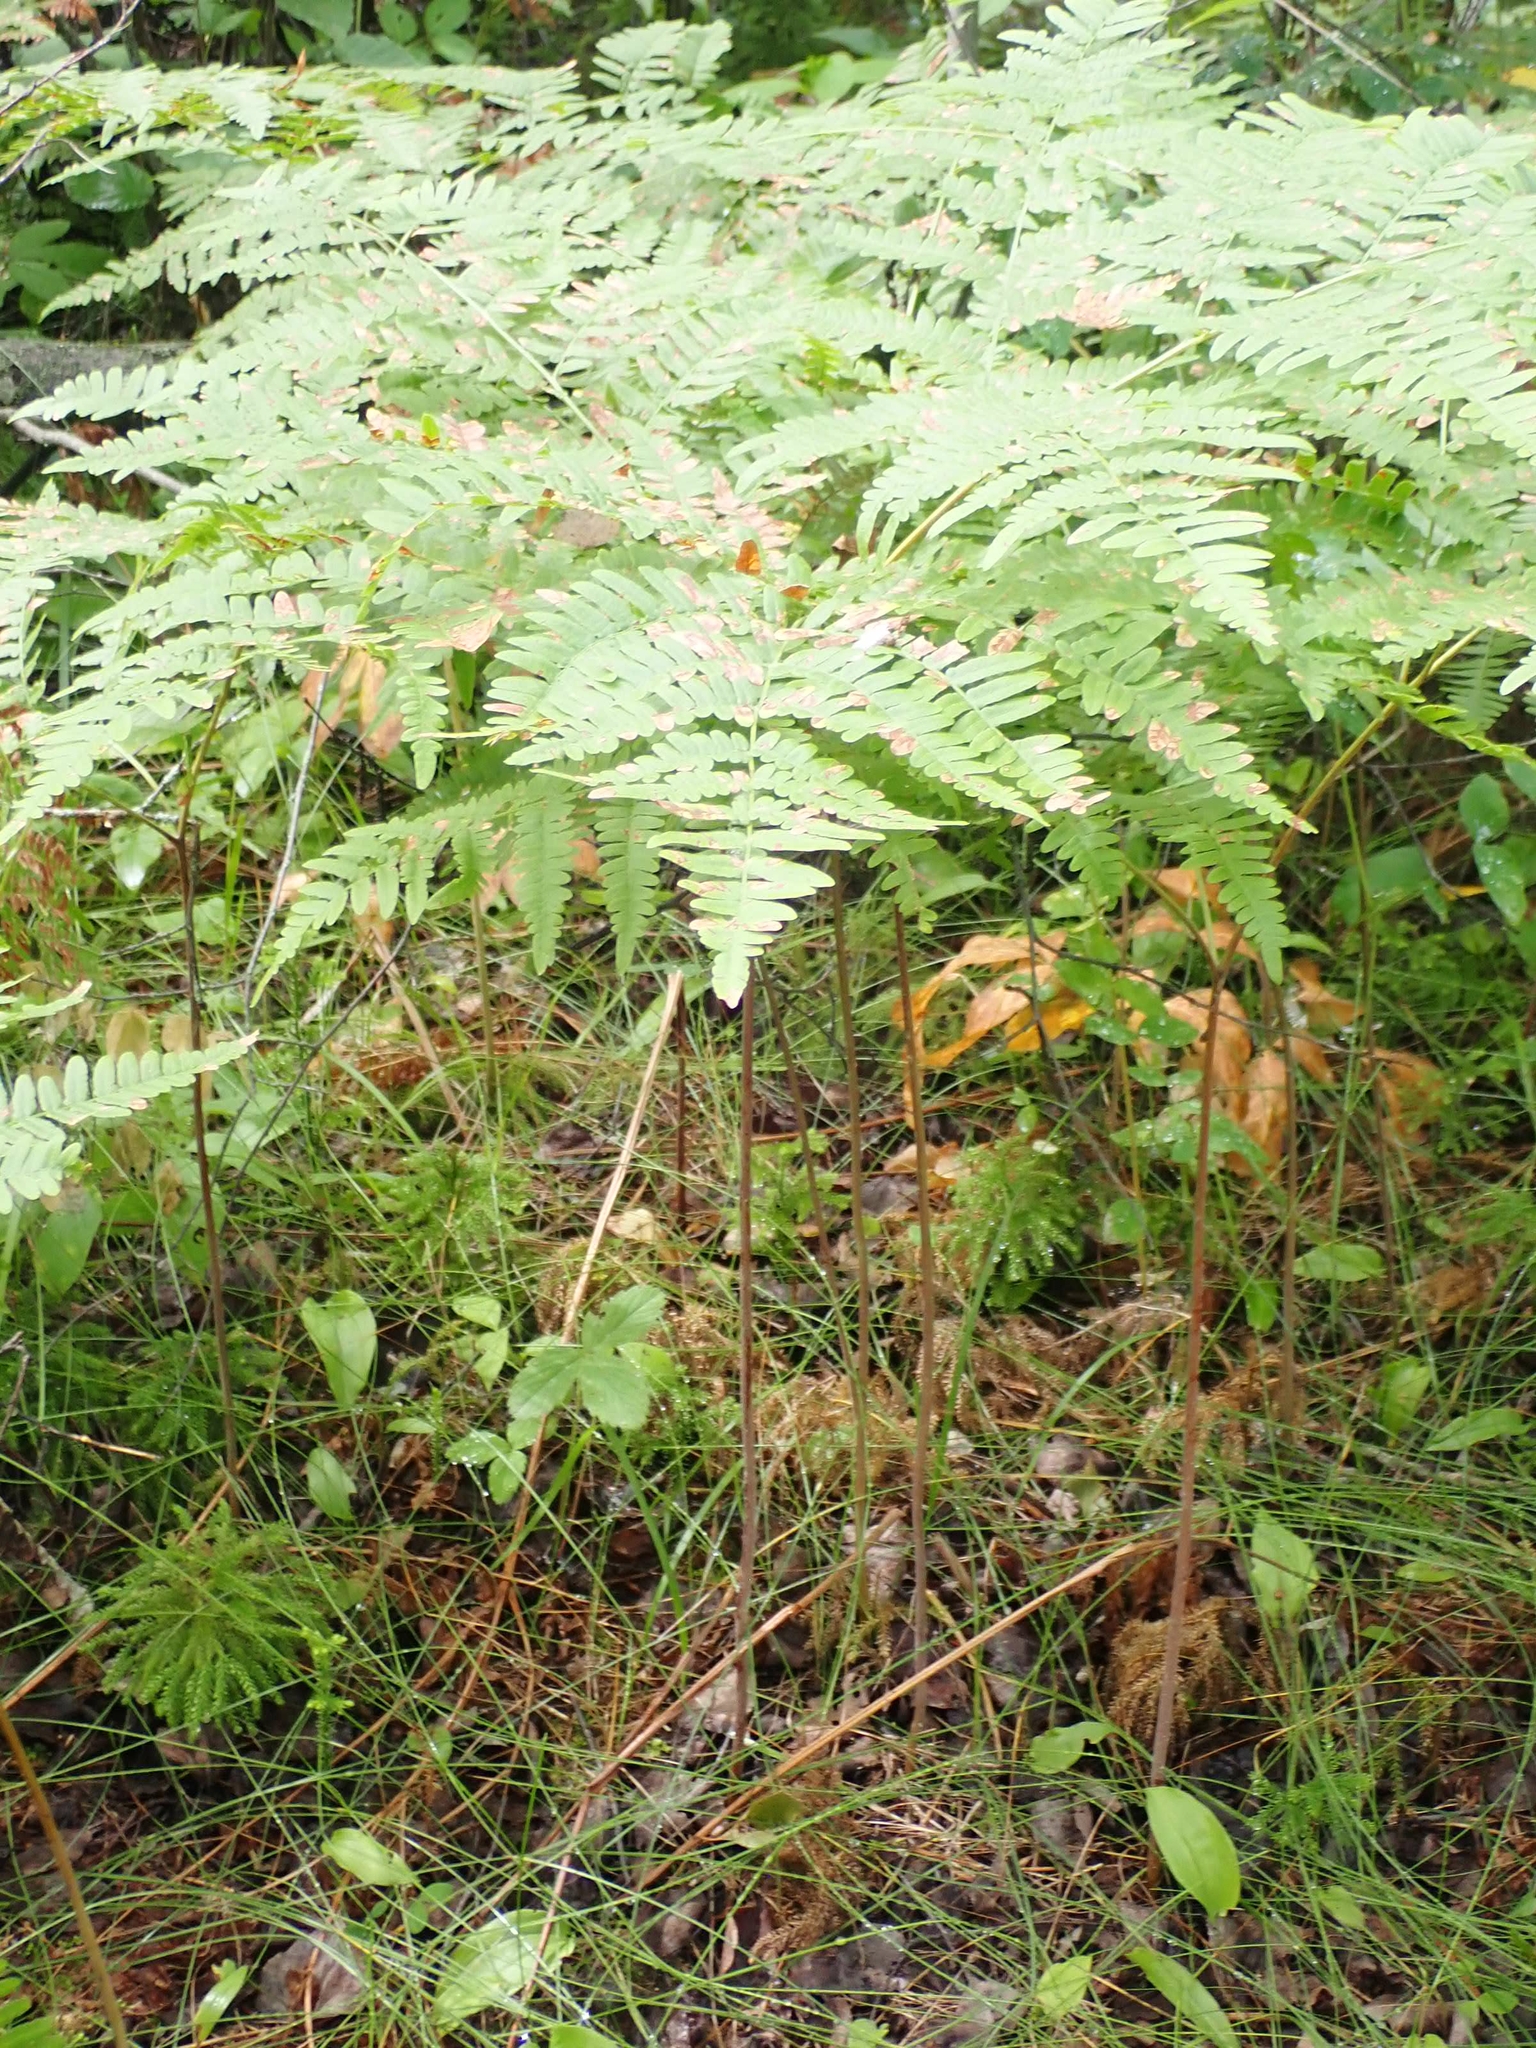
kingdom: Plantae
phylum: Tracheophyta
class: Polypodiopsida
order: Polypodiales
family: Dennstaedtiaceae
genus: Pteridium
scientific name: Pteridium aquilinum
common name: Bracken
